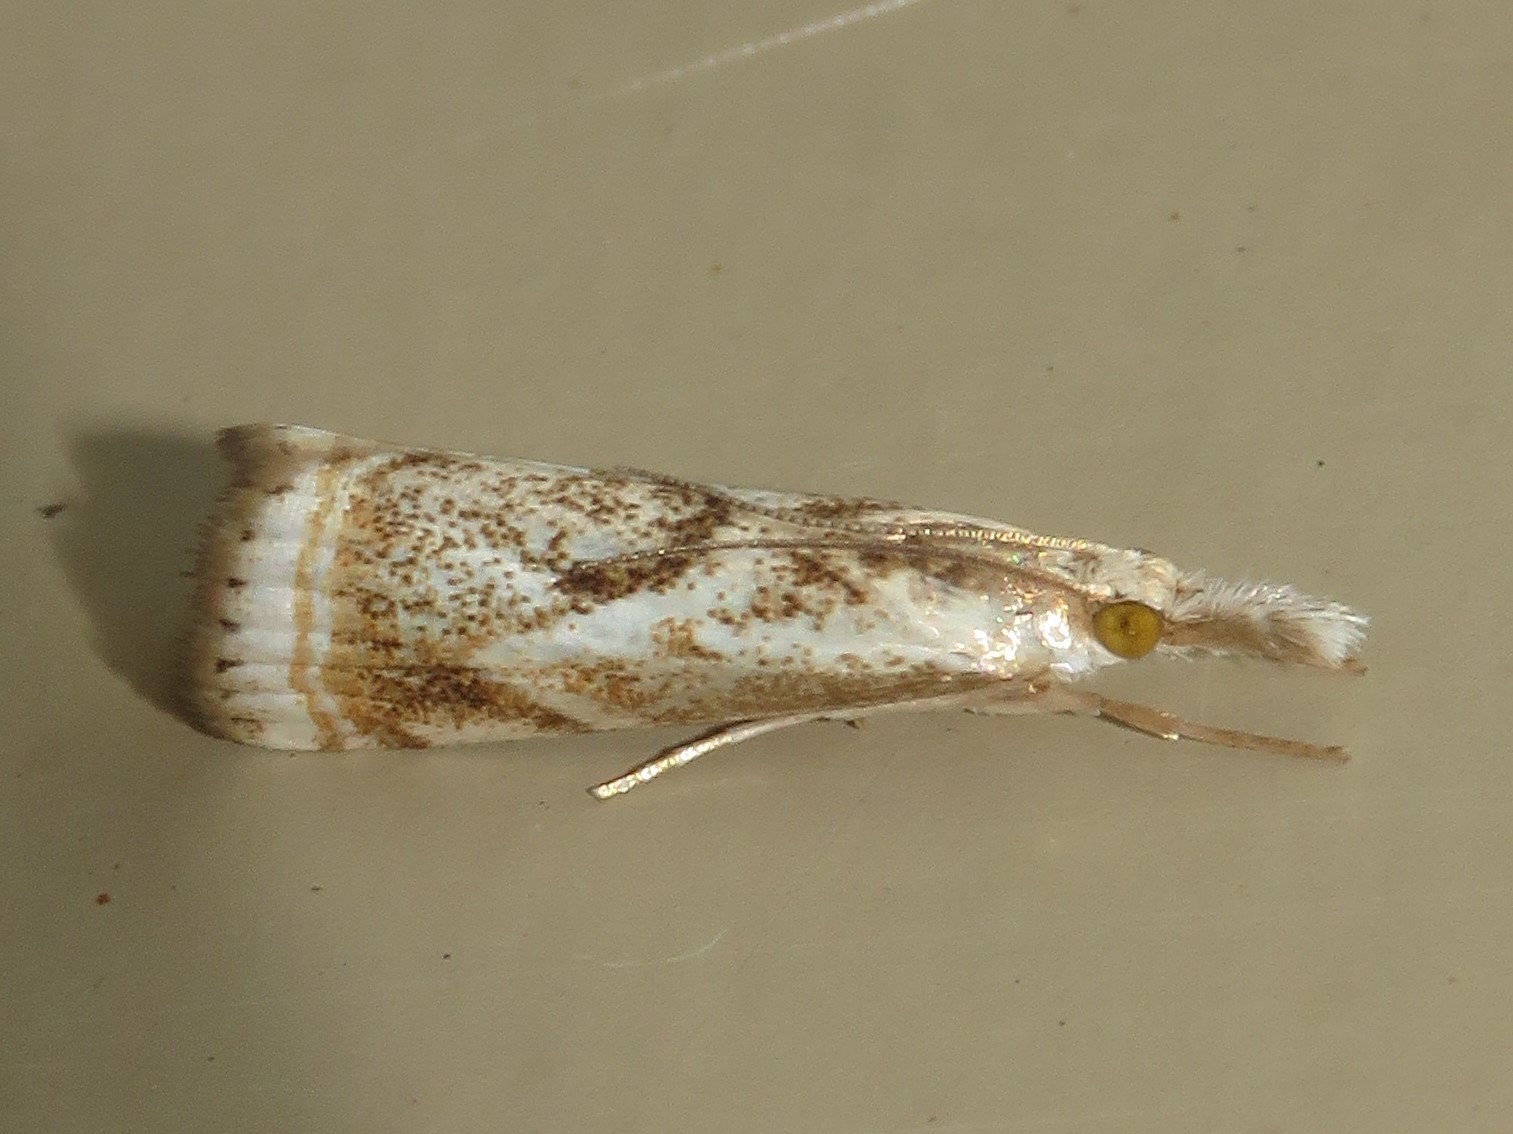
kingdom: Animalia
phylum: Arthropoda
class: Insecta
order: Lepidoptera
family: Crambidae
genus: Microcrambus
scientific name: Microcrambus elegans
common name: Elegant grass-veneer
